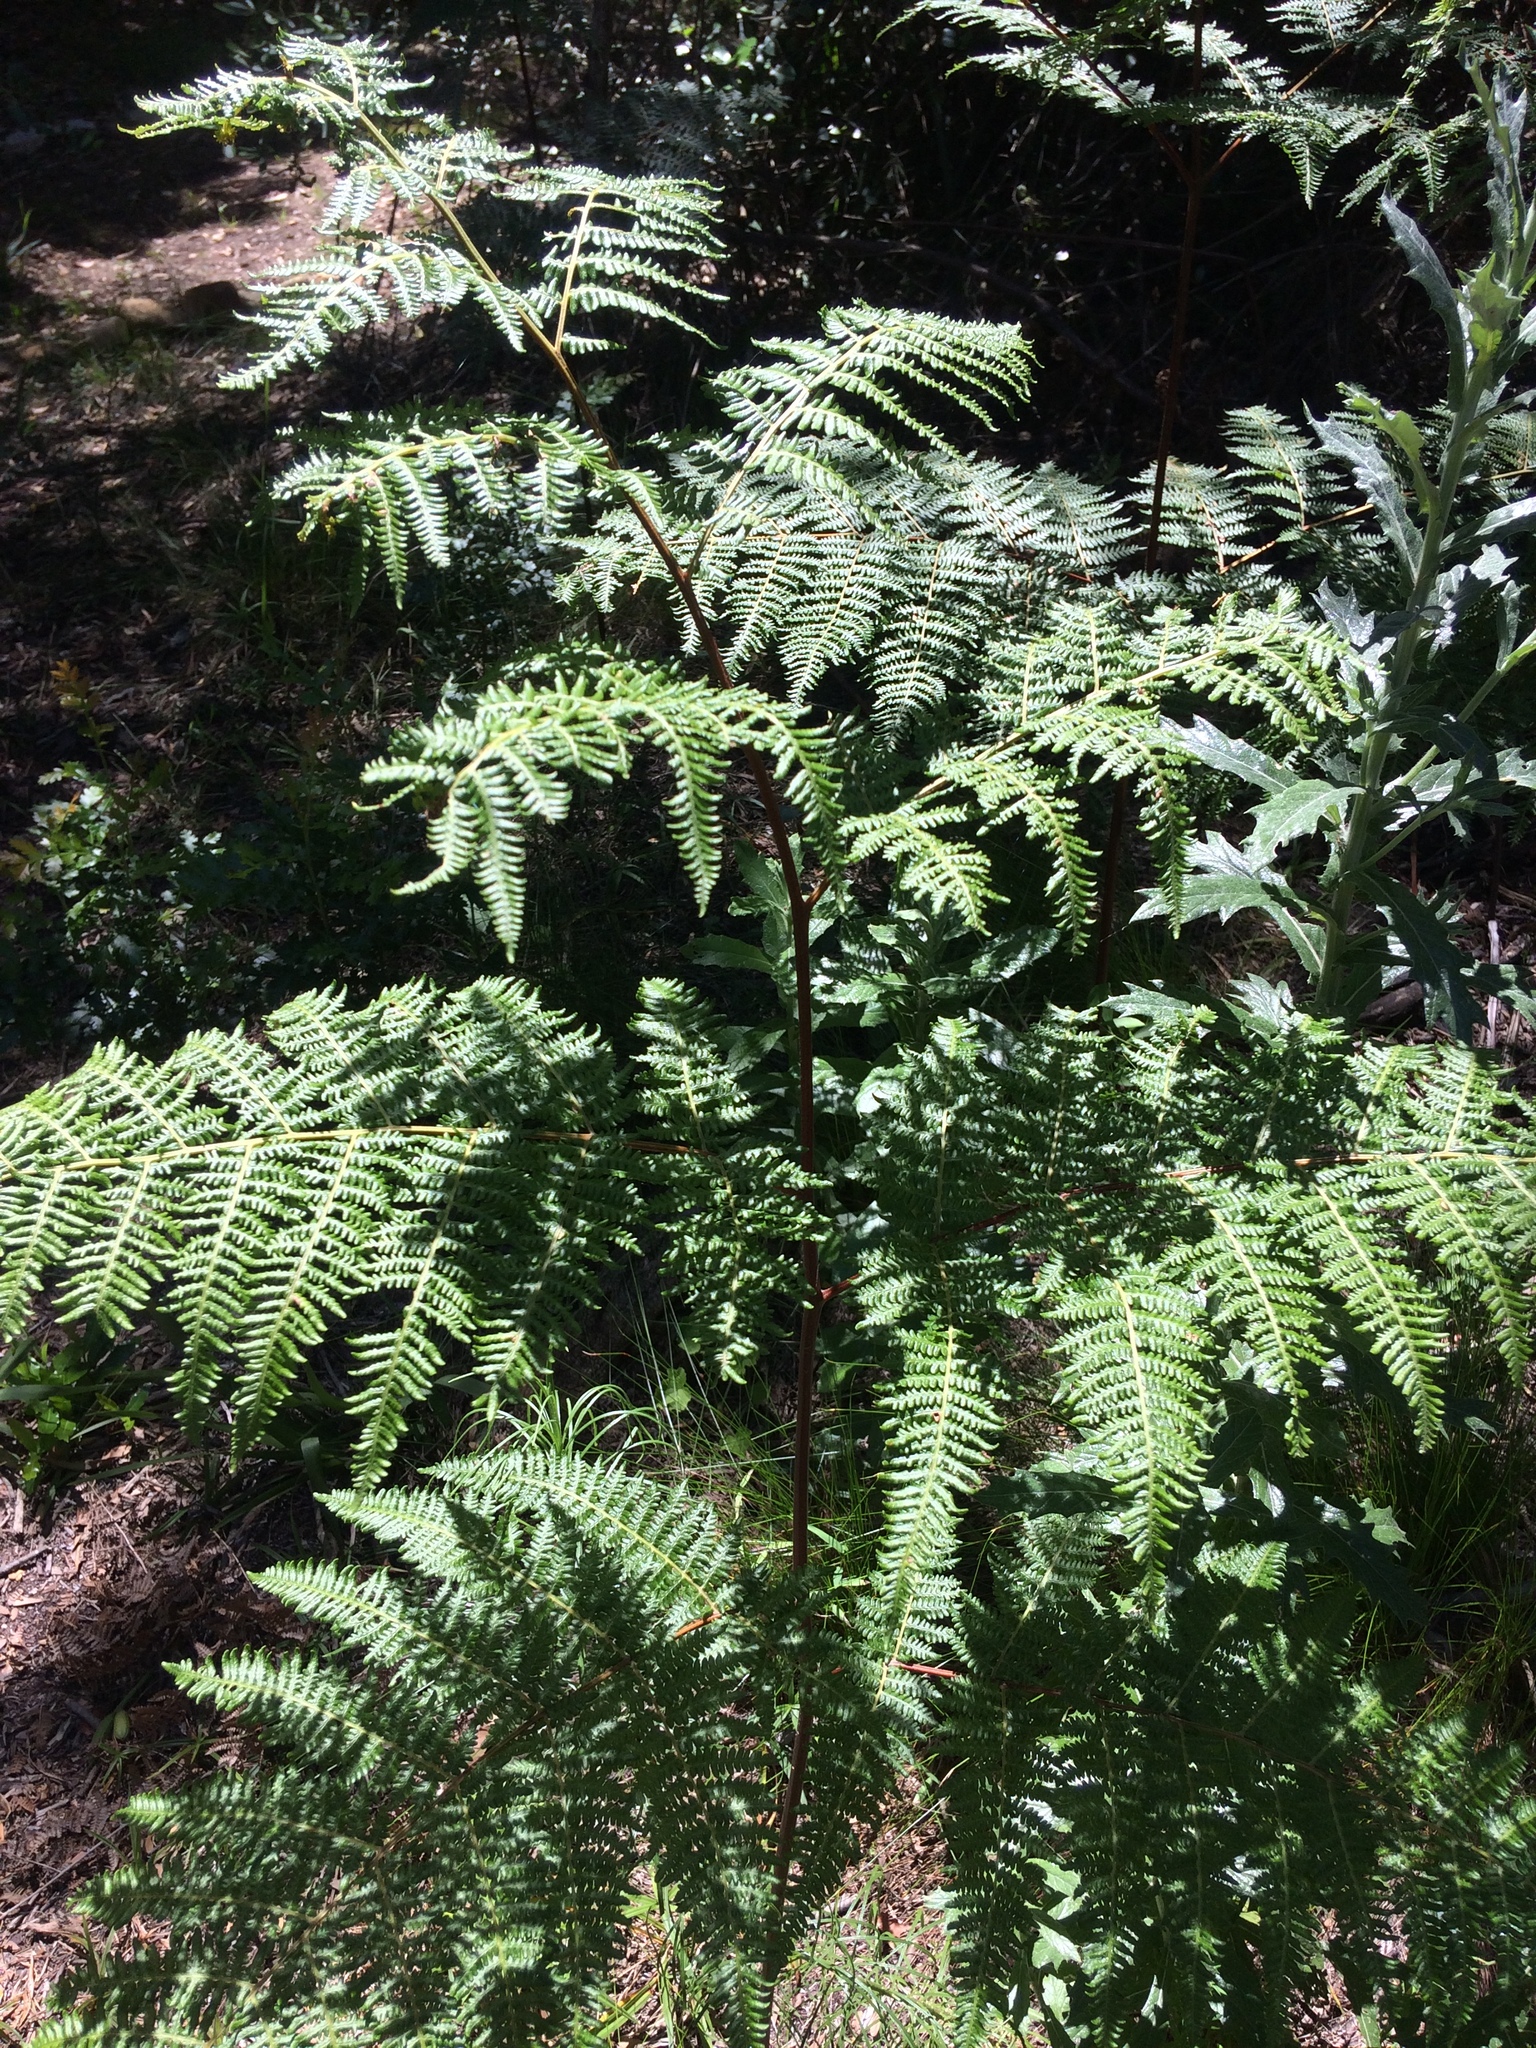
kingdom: Plantae
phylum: Tracheophyta
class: Polypodiopsida
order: Polypodiales
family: Dennstaedtiaceae
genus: Pteridium
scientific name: Pteridium aquilinum
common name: Bracken
